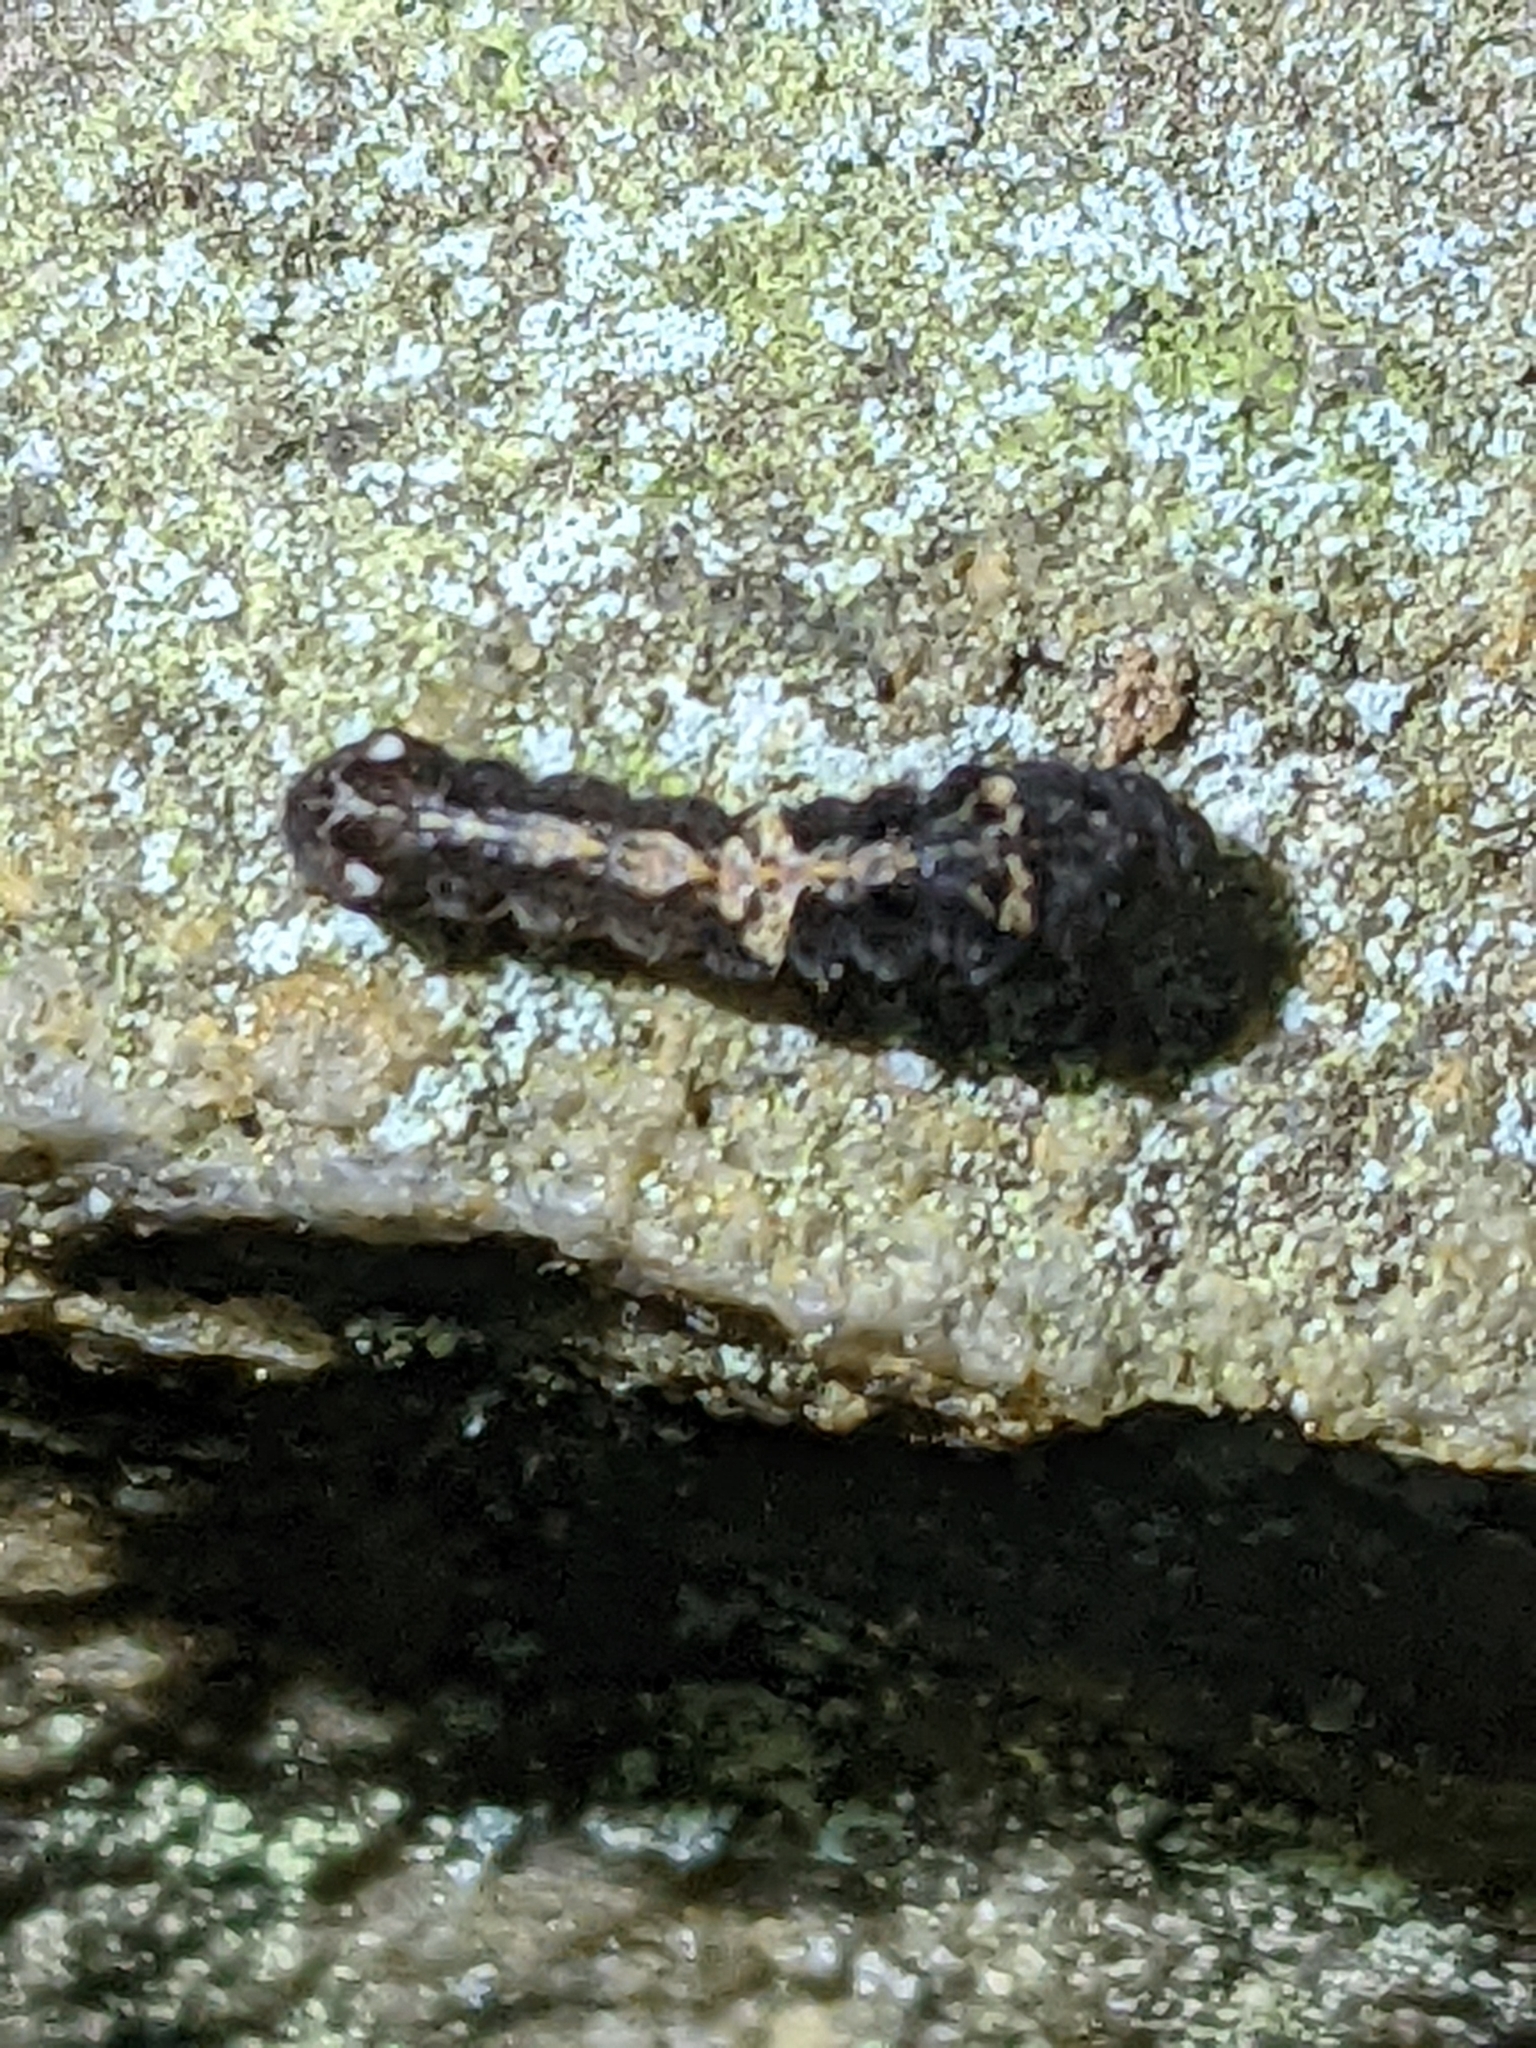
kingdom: Animalia
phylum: Arthropoda
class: Insecta
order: Lepidoptera
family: Noctuidae
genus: Elaphria
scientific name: Elaphria versicolor
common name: Fir harlequin
